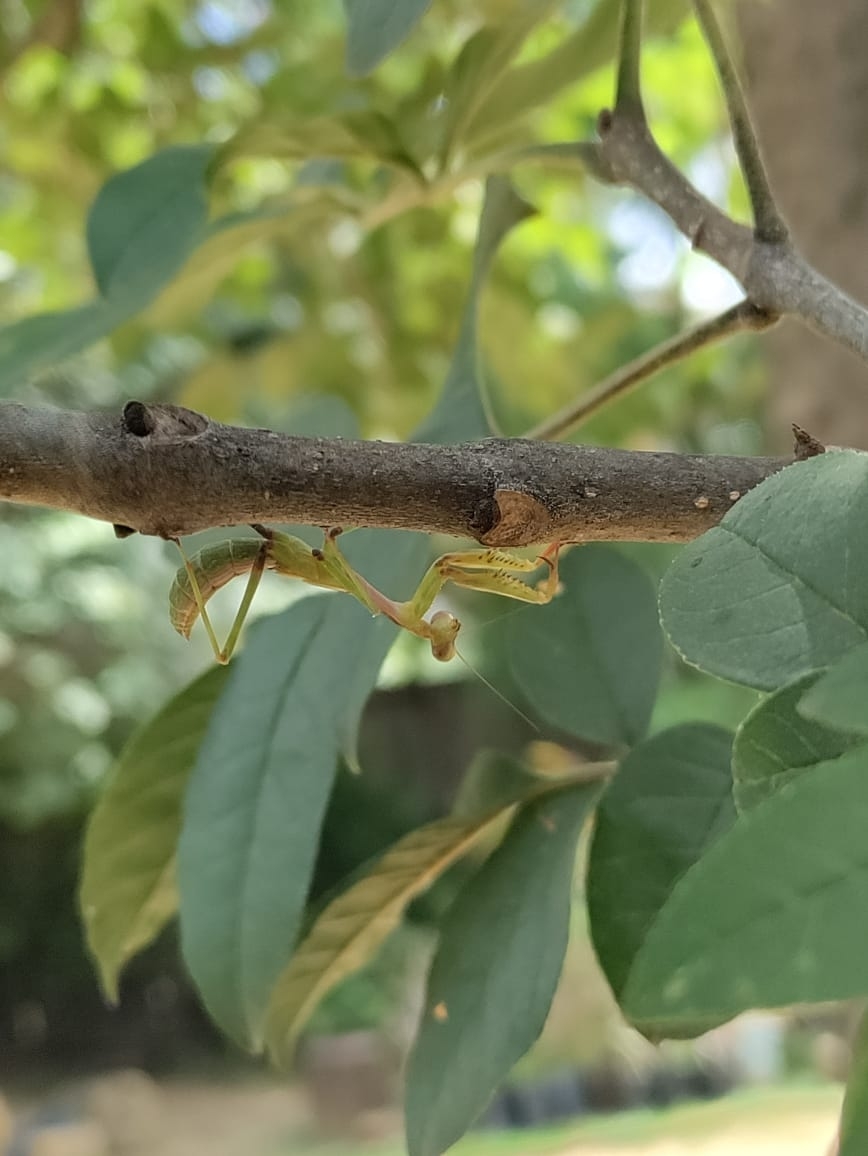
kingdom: Animalia
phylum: Arthropoda
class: Insecta
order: Mantodea
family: Mantidae
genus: Stagmomantis
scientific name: Stagmomantis carolina
